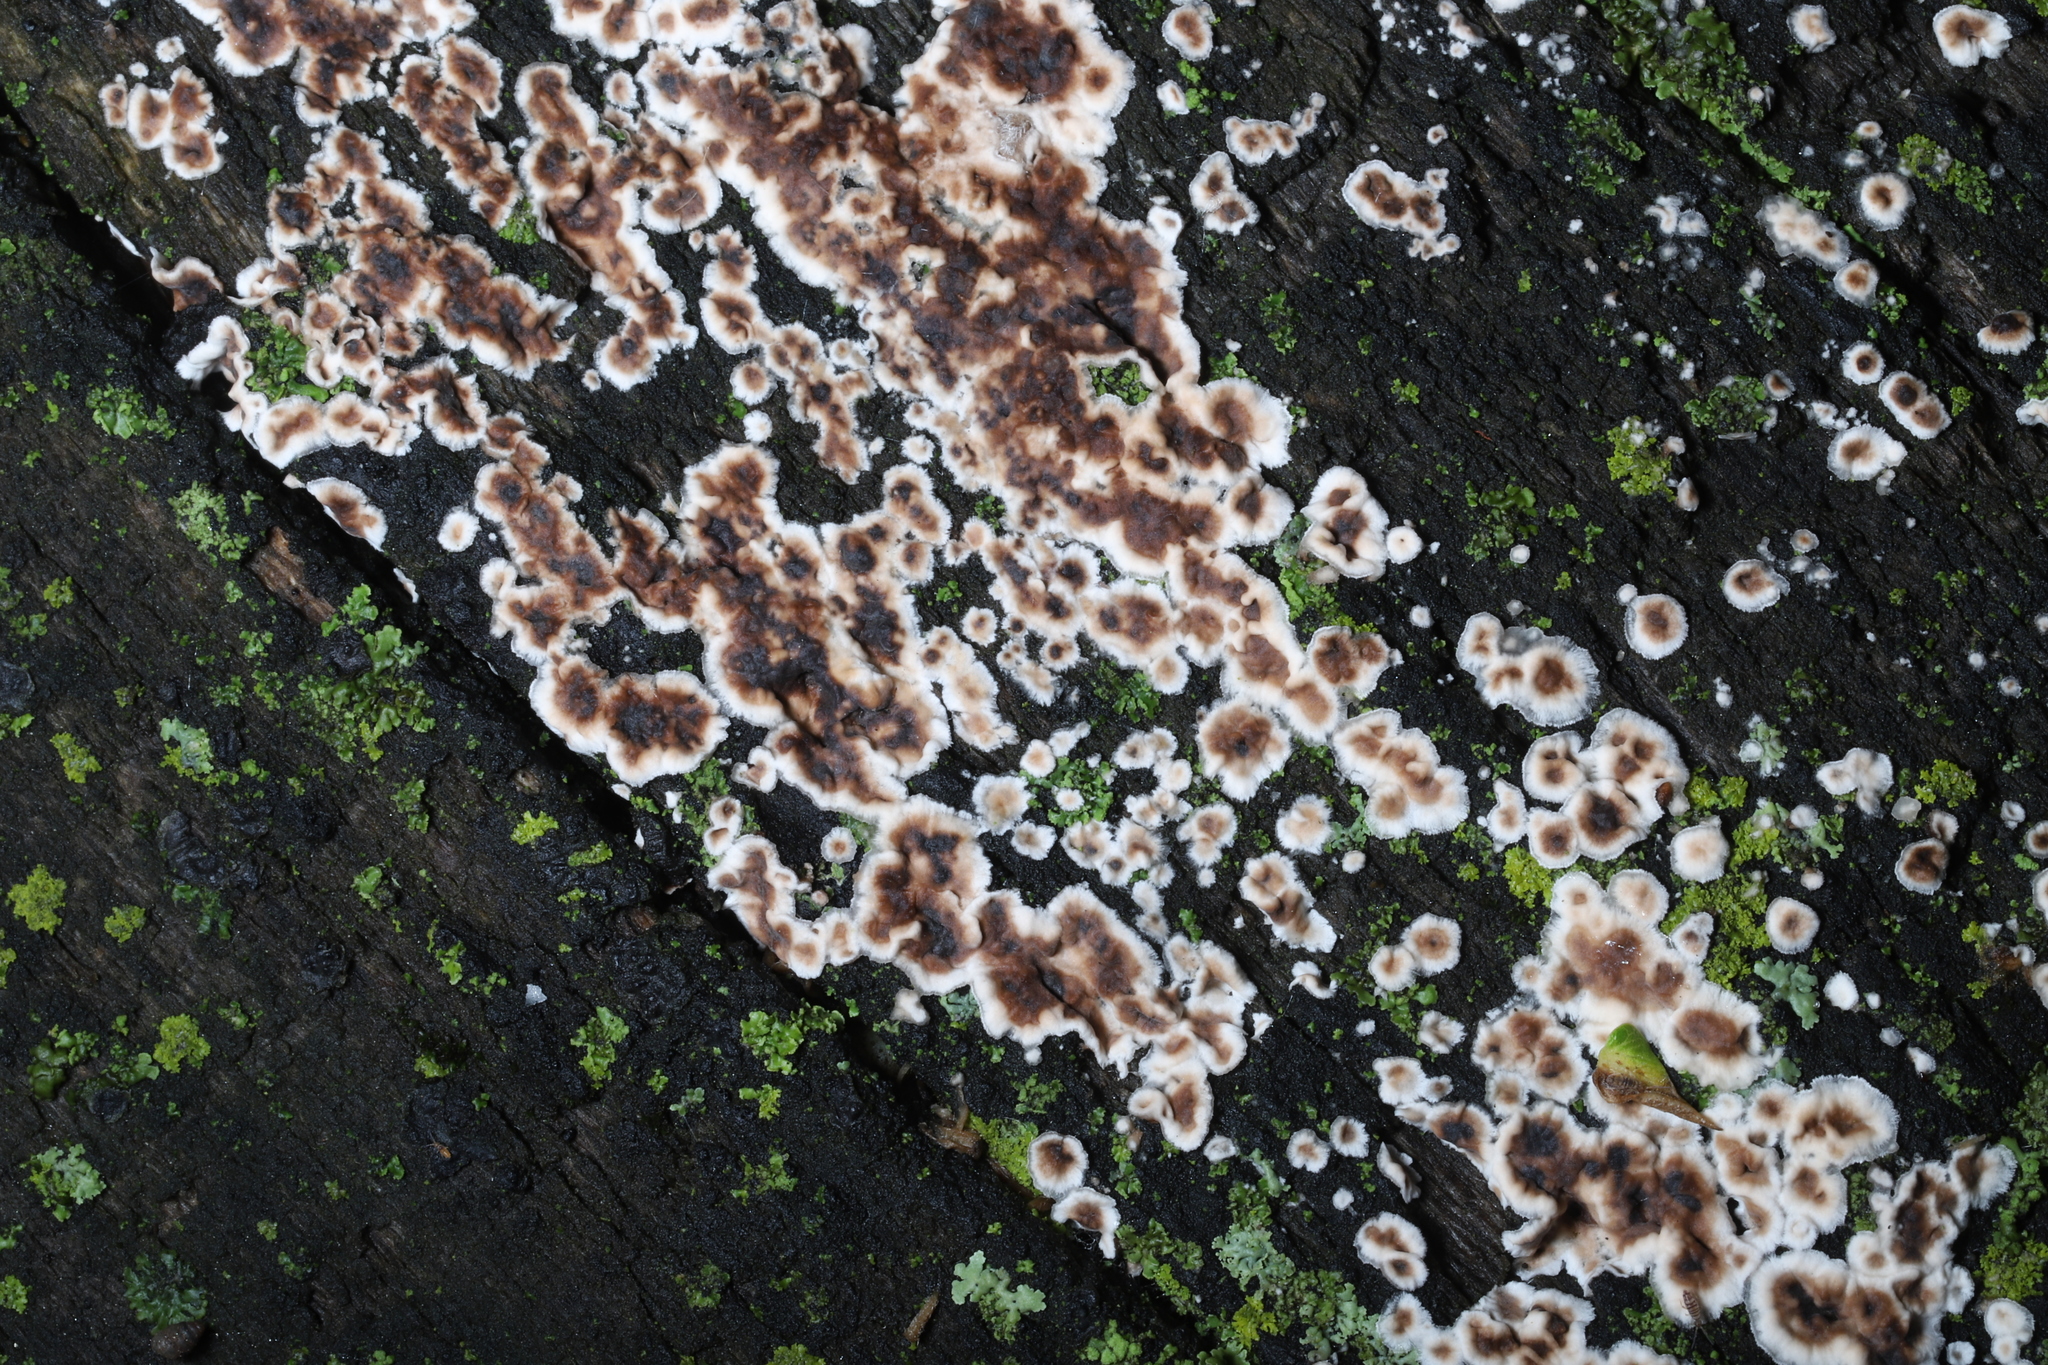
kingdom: Fungi
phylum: Basidiomycota
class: Agaricomycetes
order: Russulales
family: Peniophoraceae
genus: Peniophora
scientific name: Peniophora albobadia
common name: Giraffe spots
